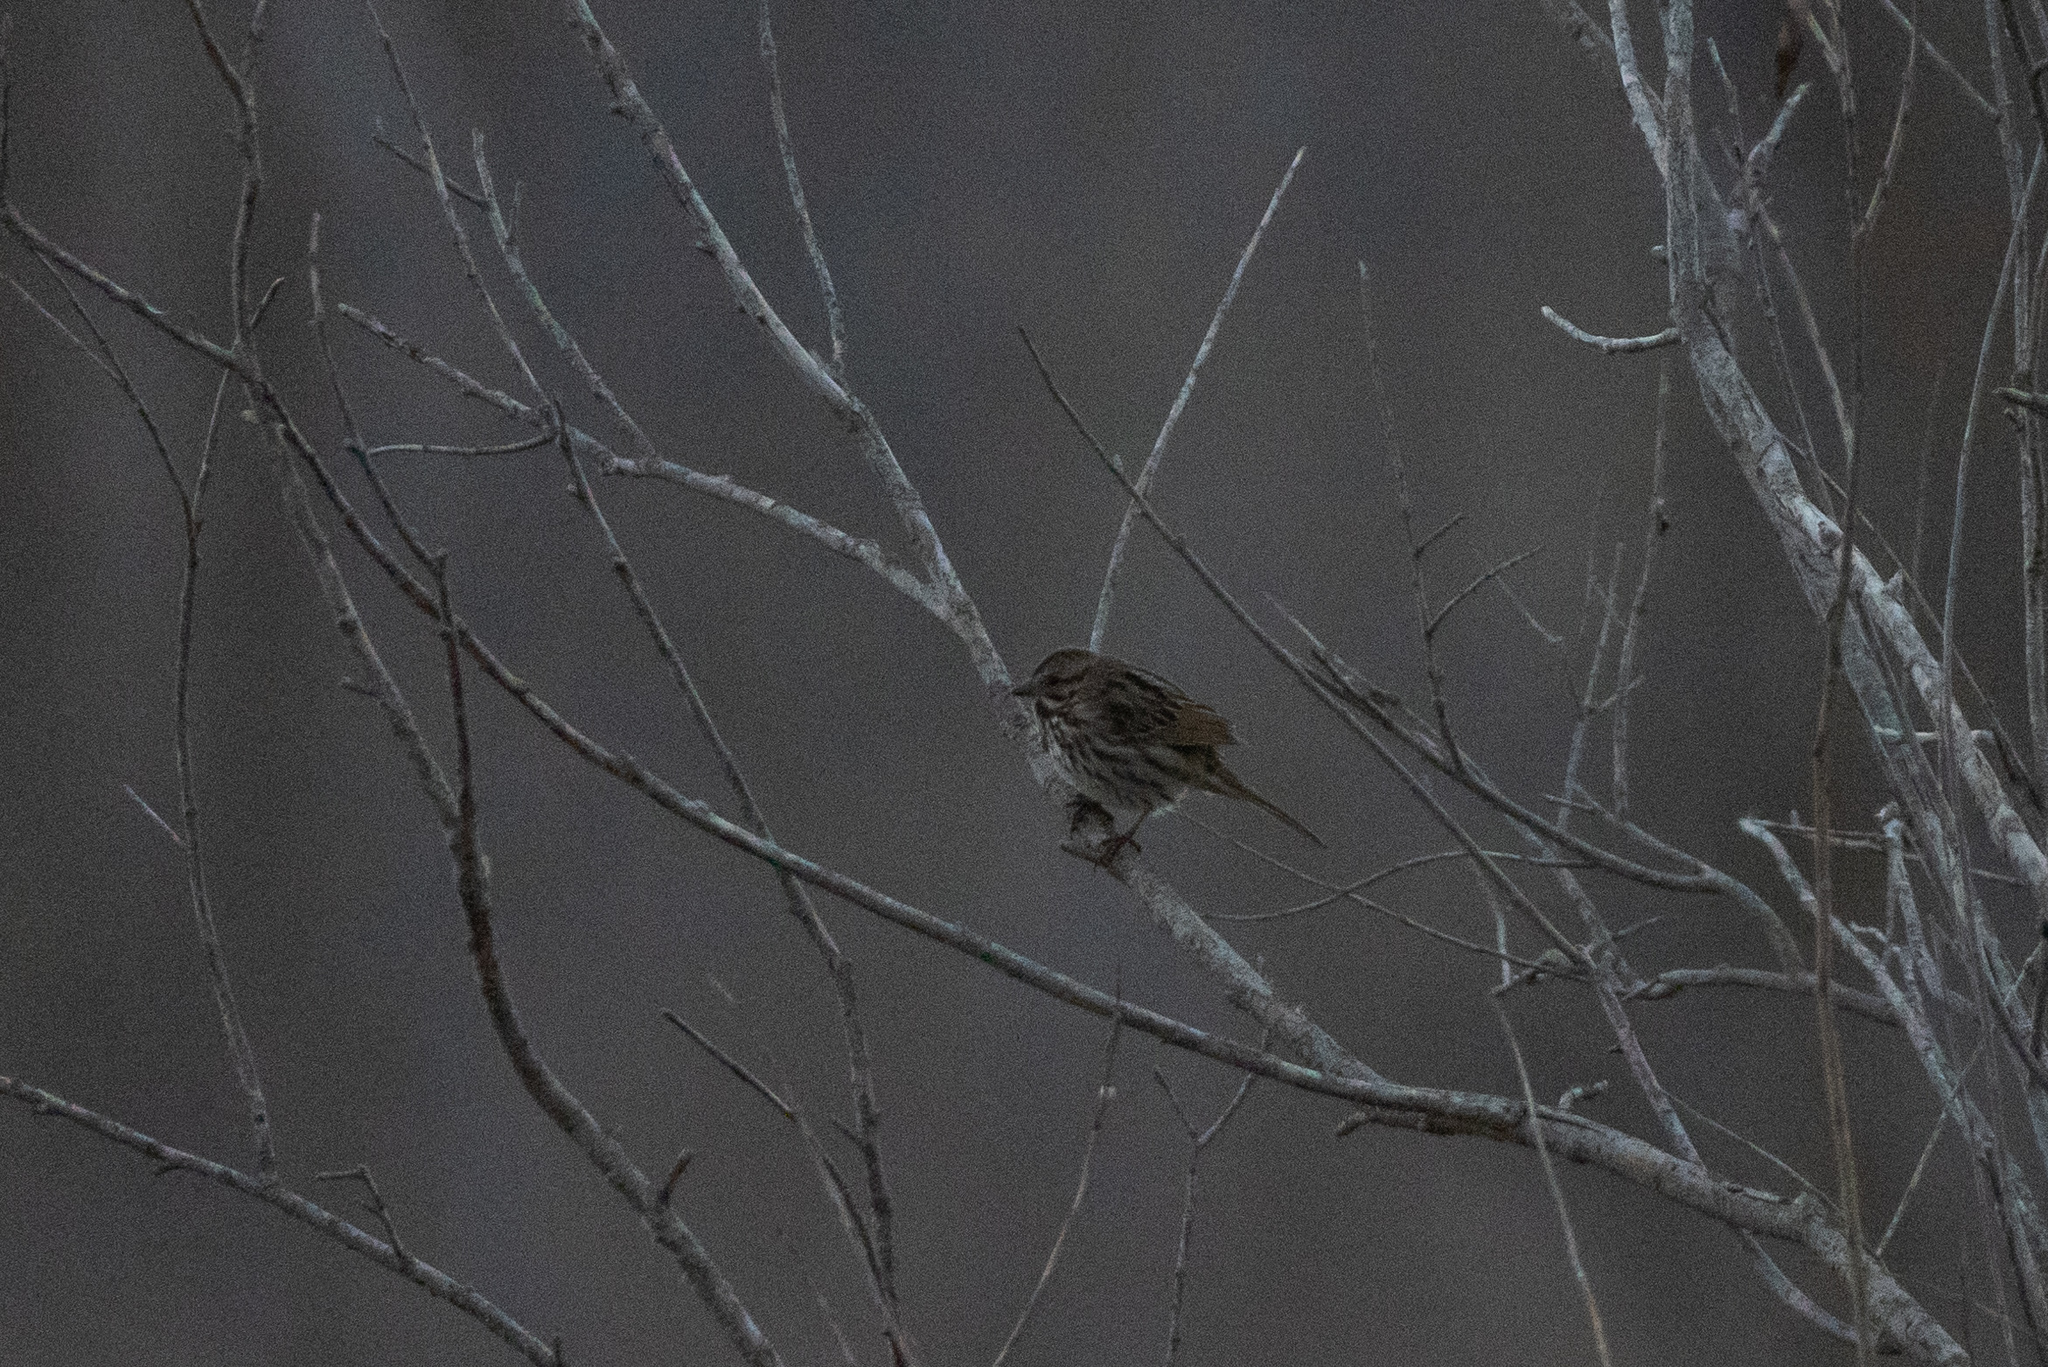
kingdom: Animalia
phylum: Chordata
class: Aves
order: Passeriformes
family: Passerellidae
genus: Melospiza
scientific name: Melospiza melodia
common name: Song sparrow
